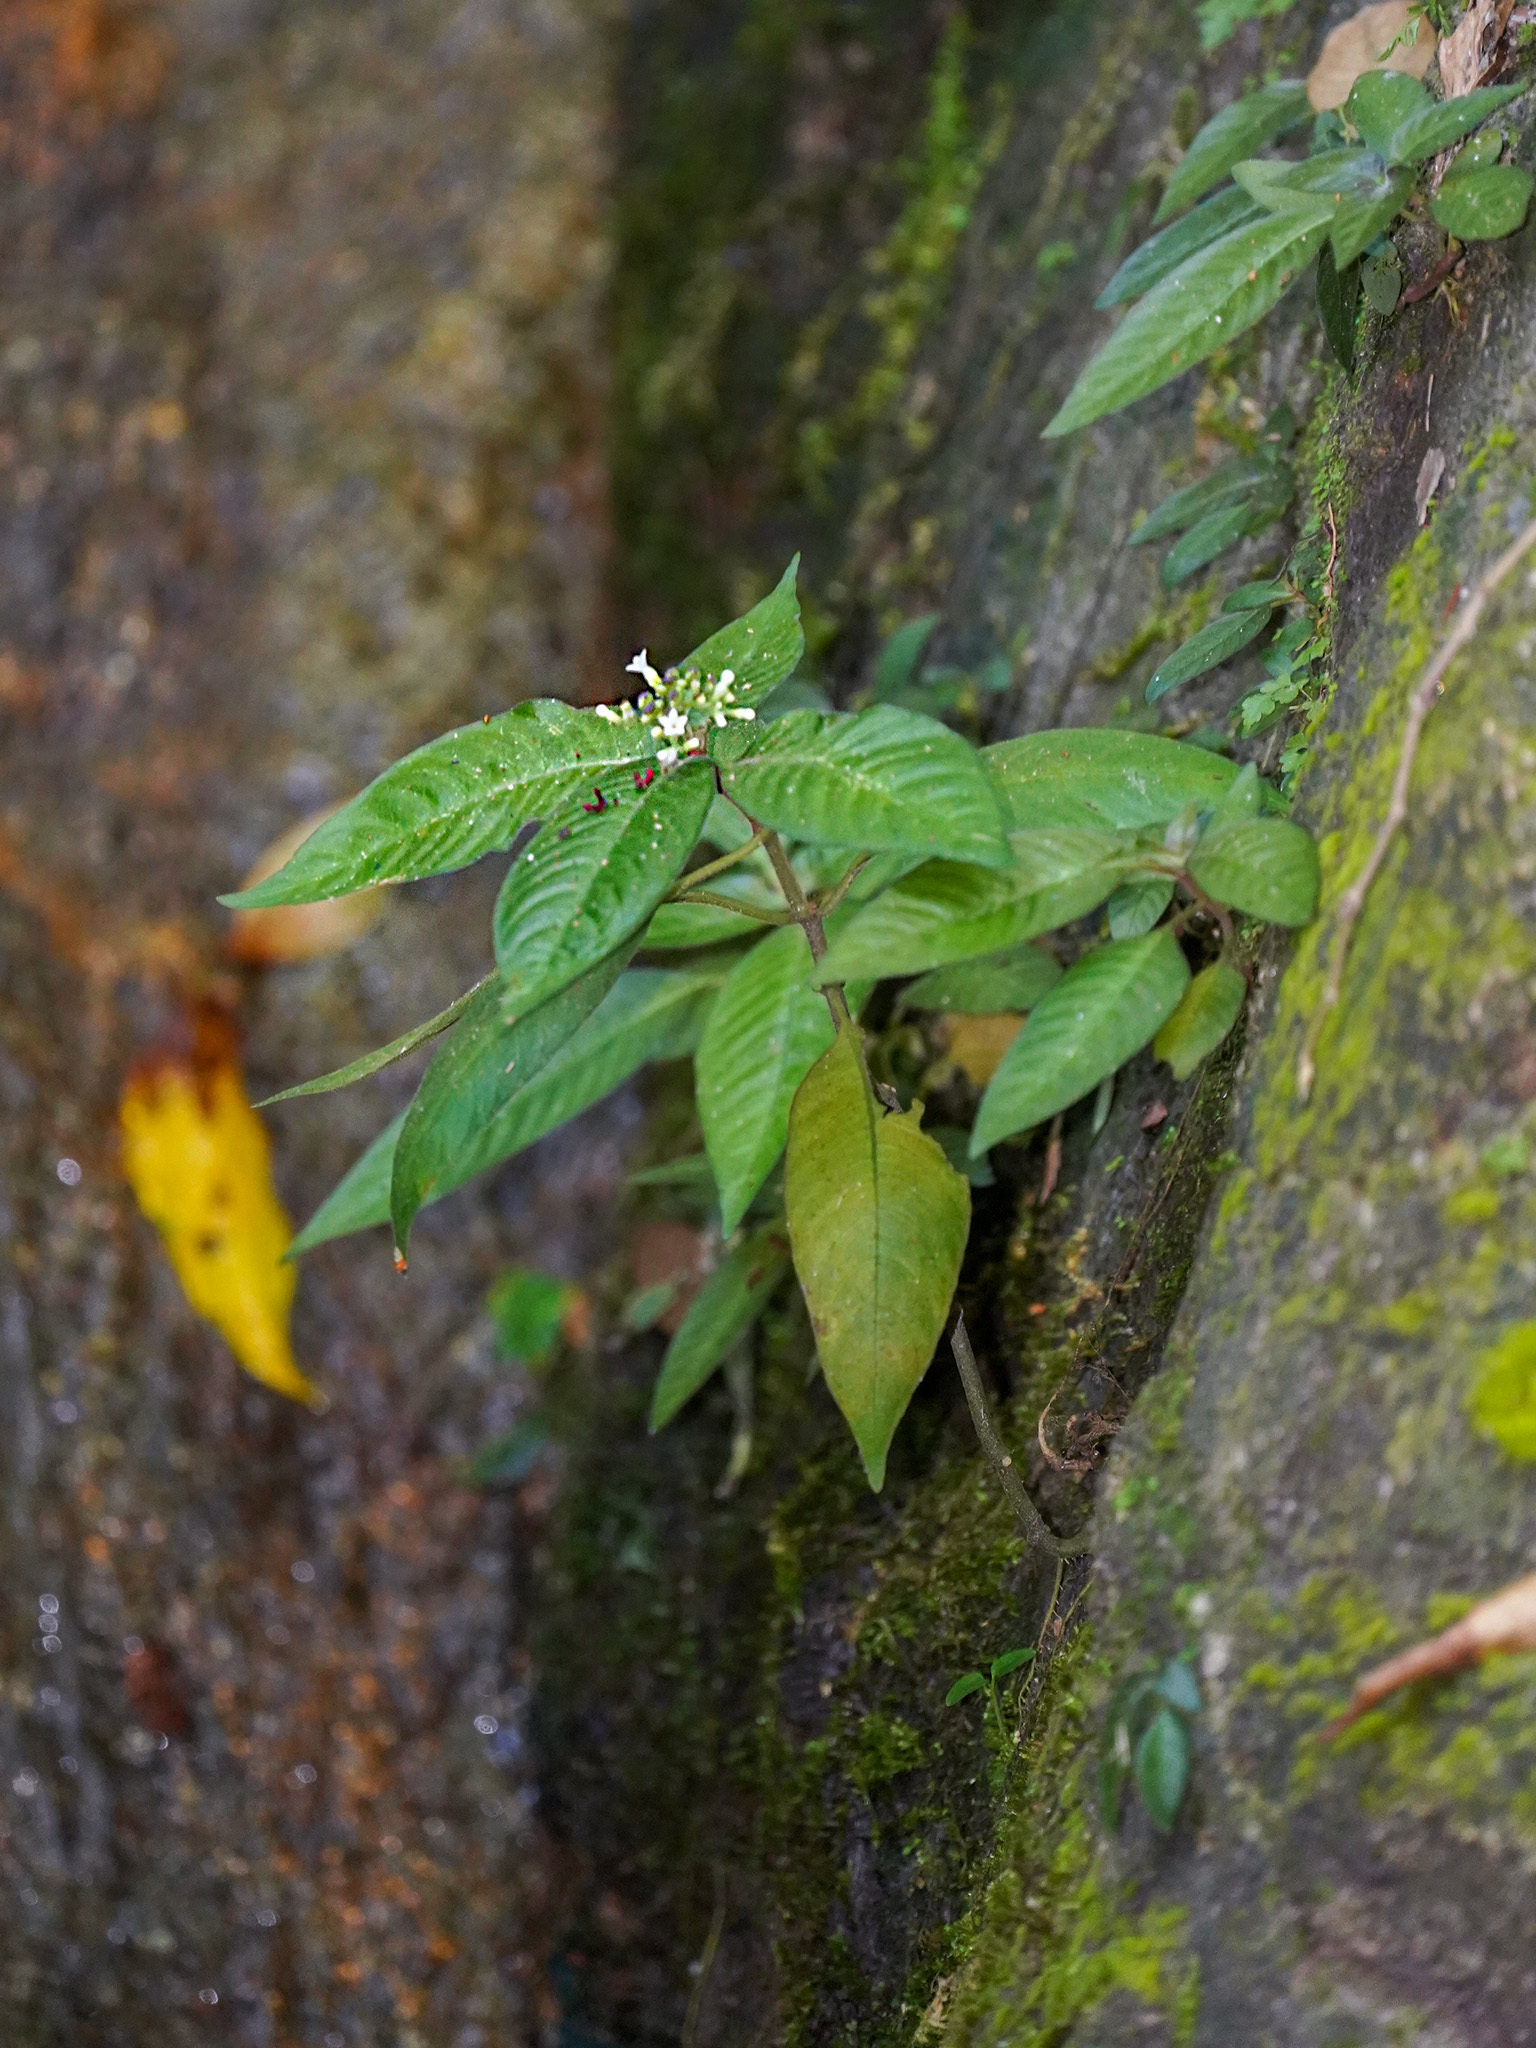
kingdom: Plantae
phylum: Tracheophyta
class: Magnoliopsida
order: Gentianales
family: Rubiaceae
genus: Ophiorrhiza
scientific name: Ophiorrhiza singaporensis
